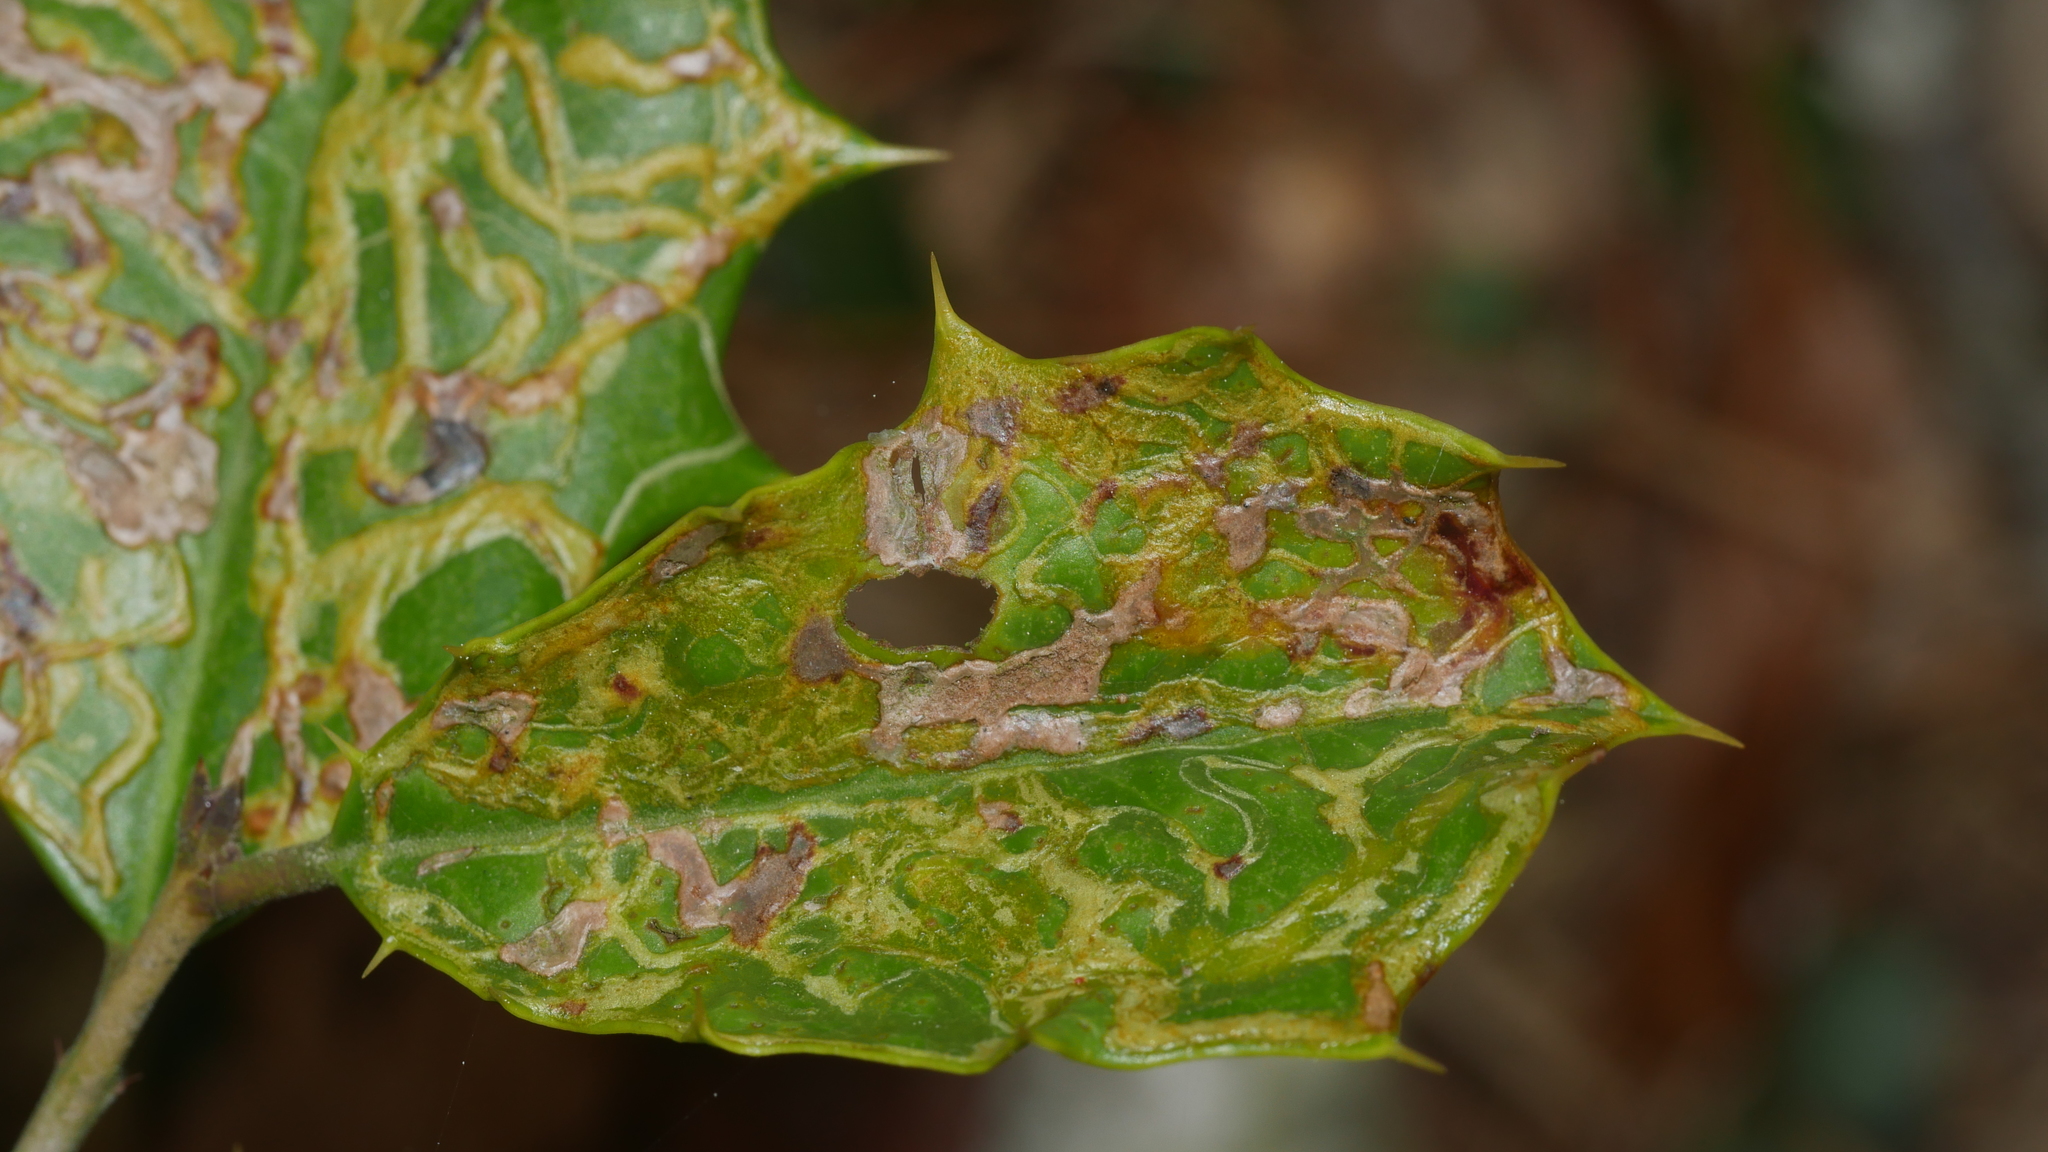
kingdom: Animalia
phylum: Arthropoda
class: Insecta
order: Diptera
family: Agromyzidae
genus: Phytomyza
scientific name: Phytomyza opacae
